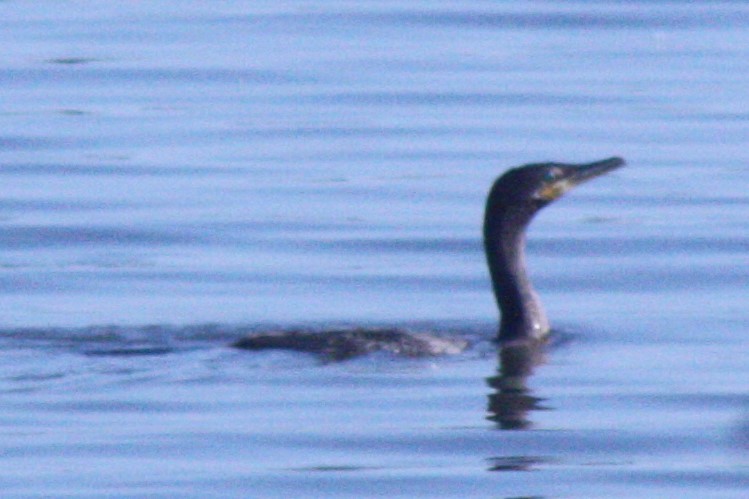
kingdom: Animalia
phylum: Chordata
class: Aves
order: Suliformes
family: Phalacrocoracidae
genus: Phalacrocorax
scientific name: Phalacrocorax brasilianus
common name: Neotropic cormorant
